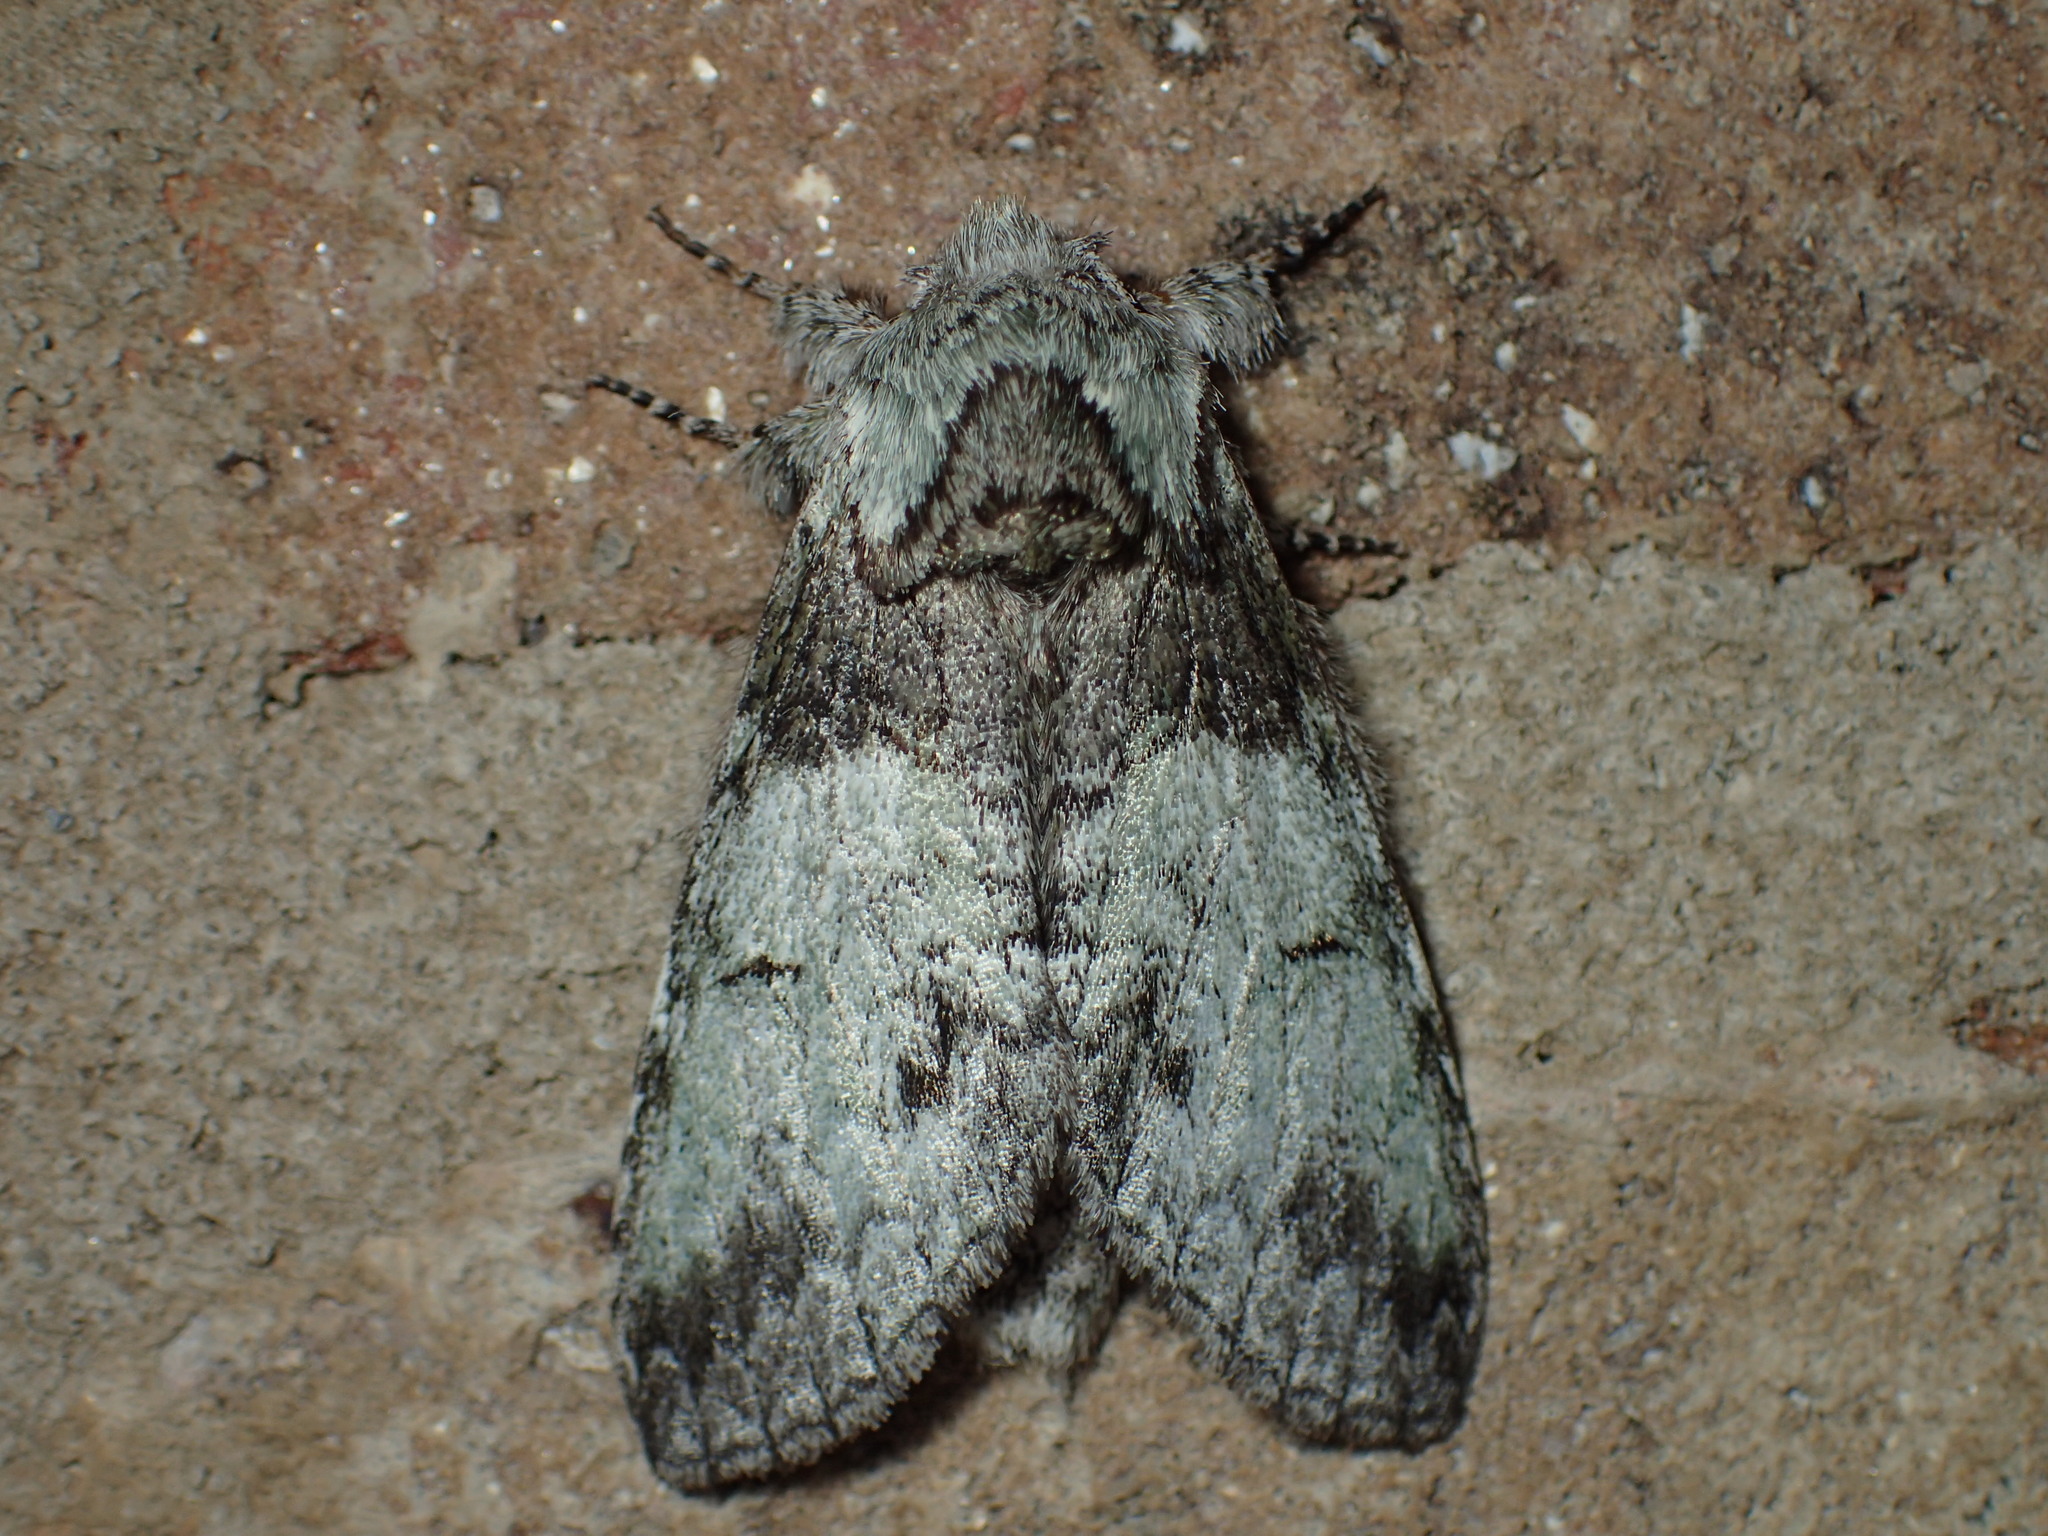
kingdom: Animalia
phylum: Arthropoda
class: Insecta
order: Lepidoptera
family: Notodontidae
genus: Macrurocampa
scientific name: Macrurocampa marthesia
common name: Mottled prominent
